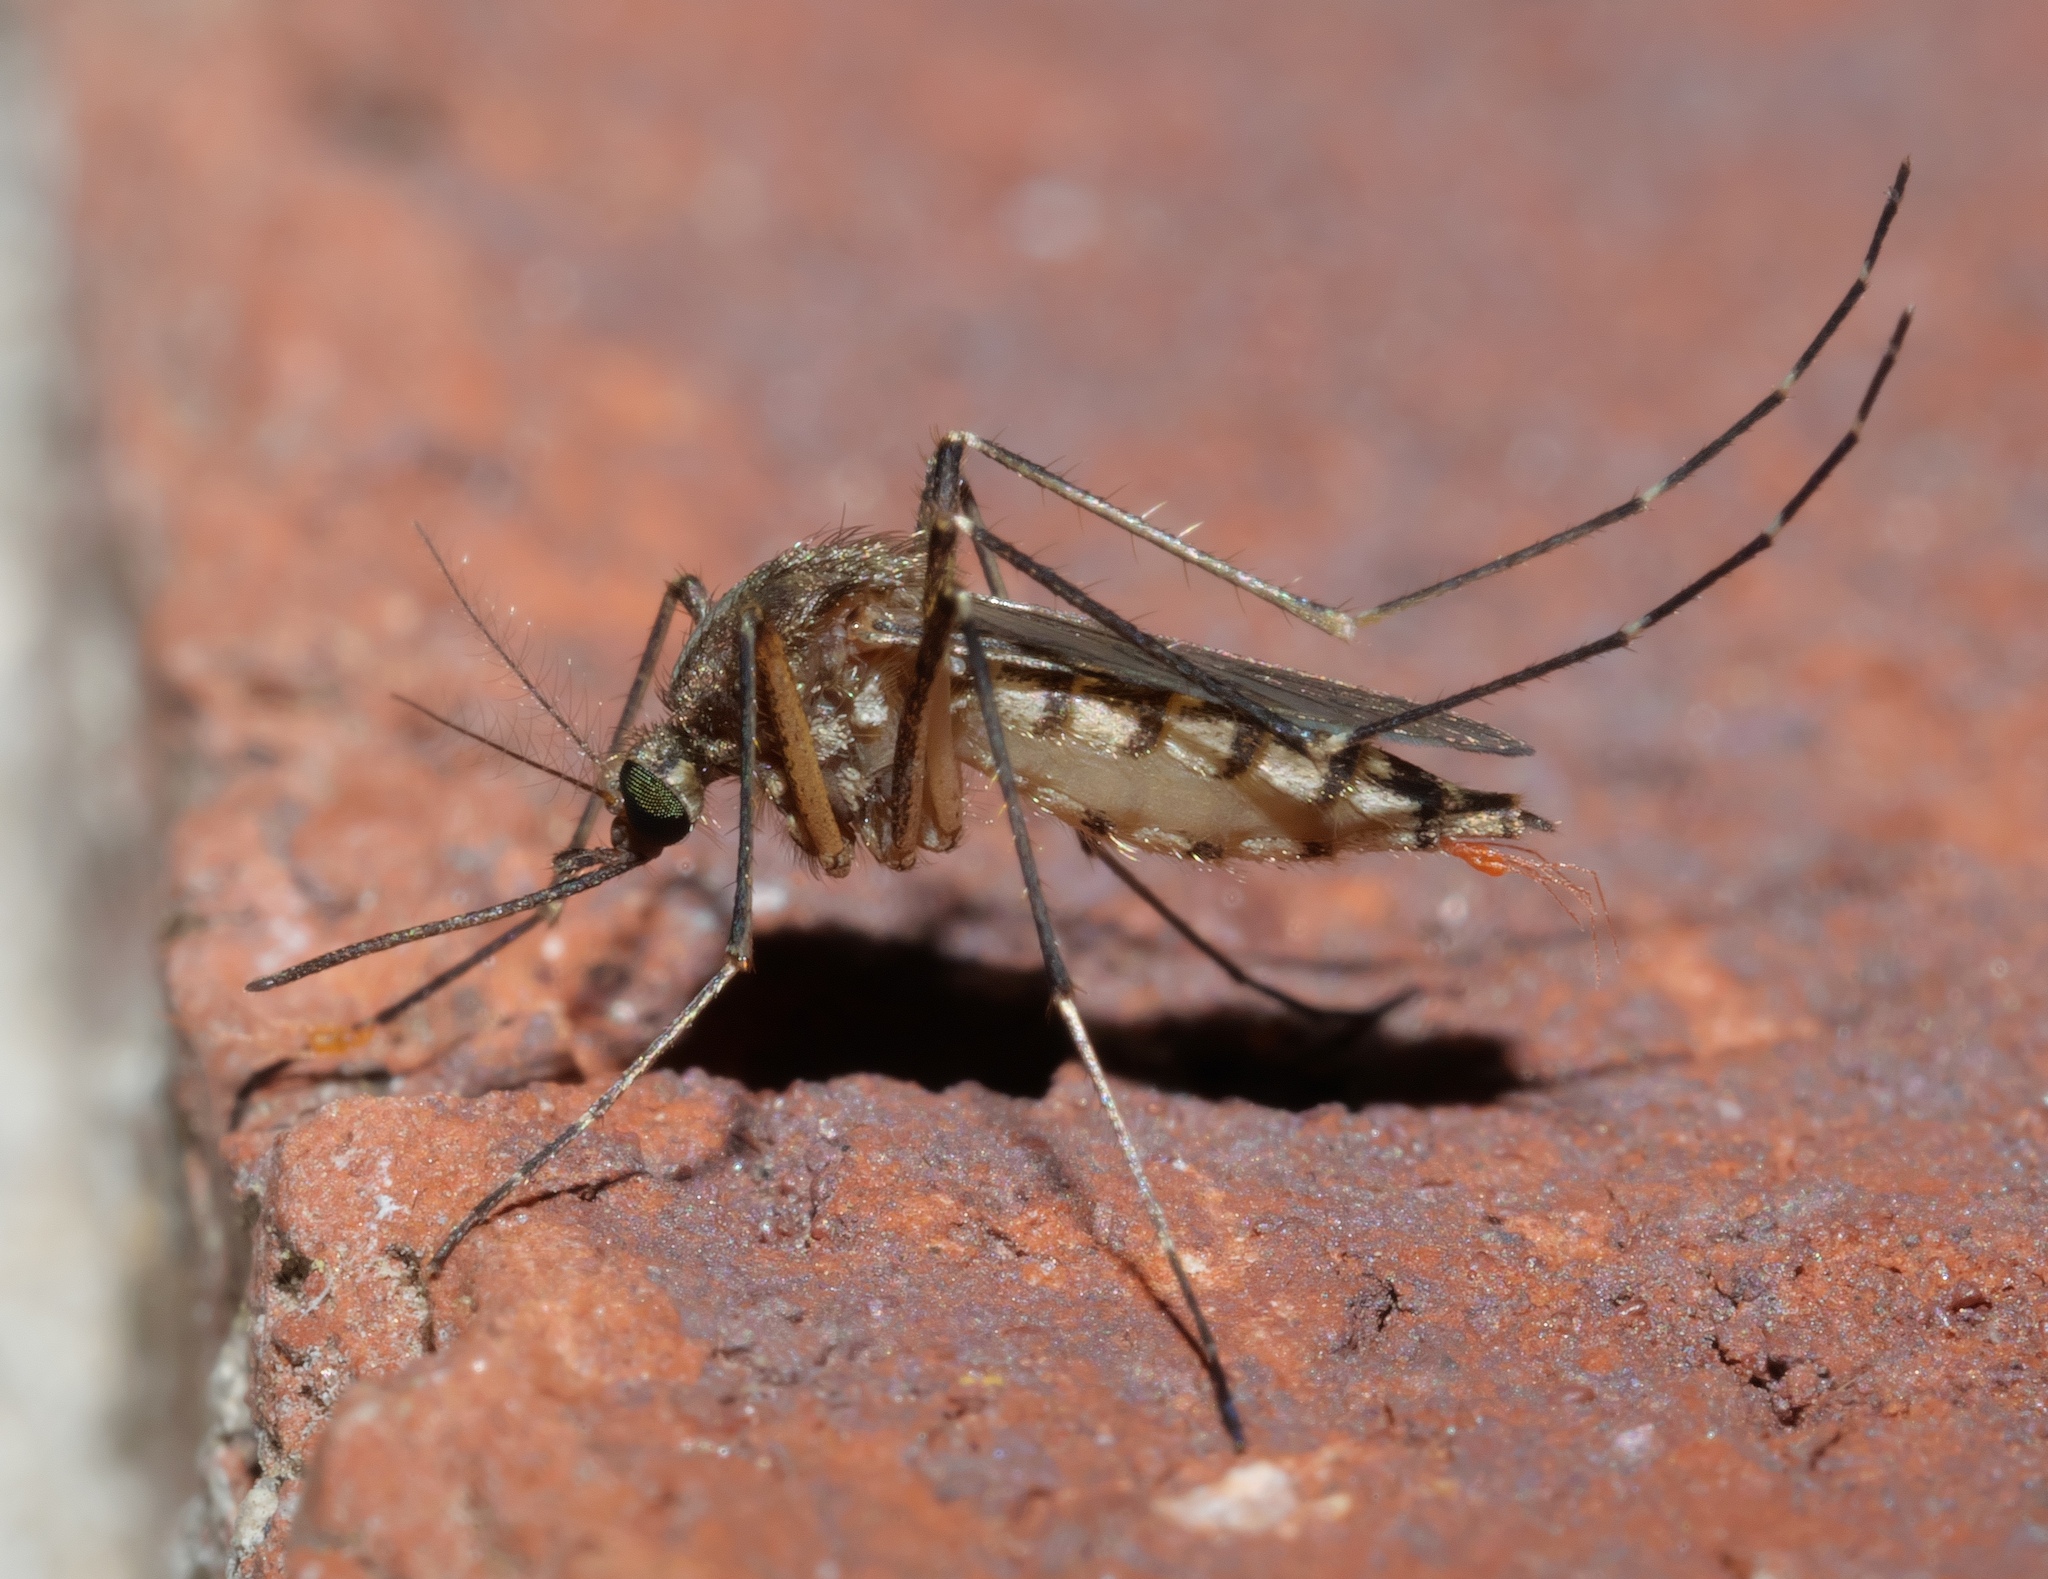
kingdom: Animalia
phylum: Arthropoda
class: Insecta
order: Diptera
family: Culicidae
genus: Aedes
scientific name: Aedes vexans
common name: Inland floodwater mosquito
